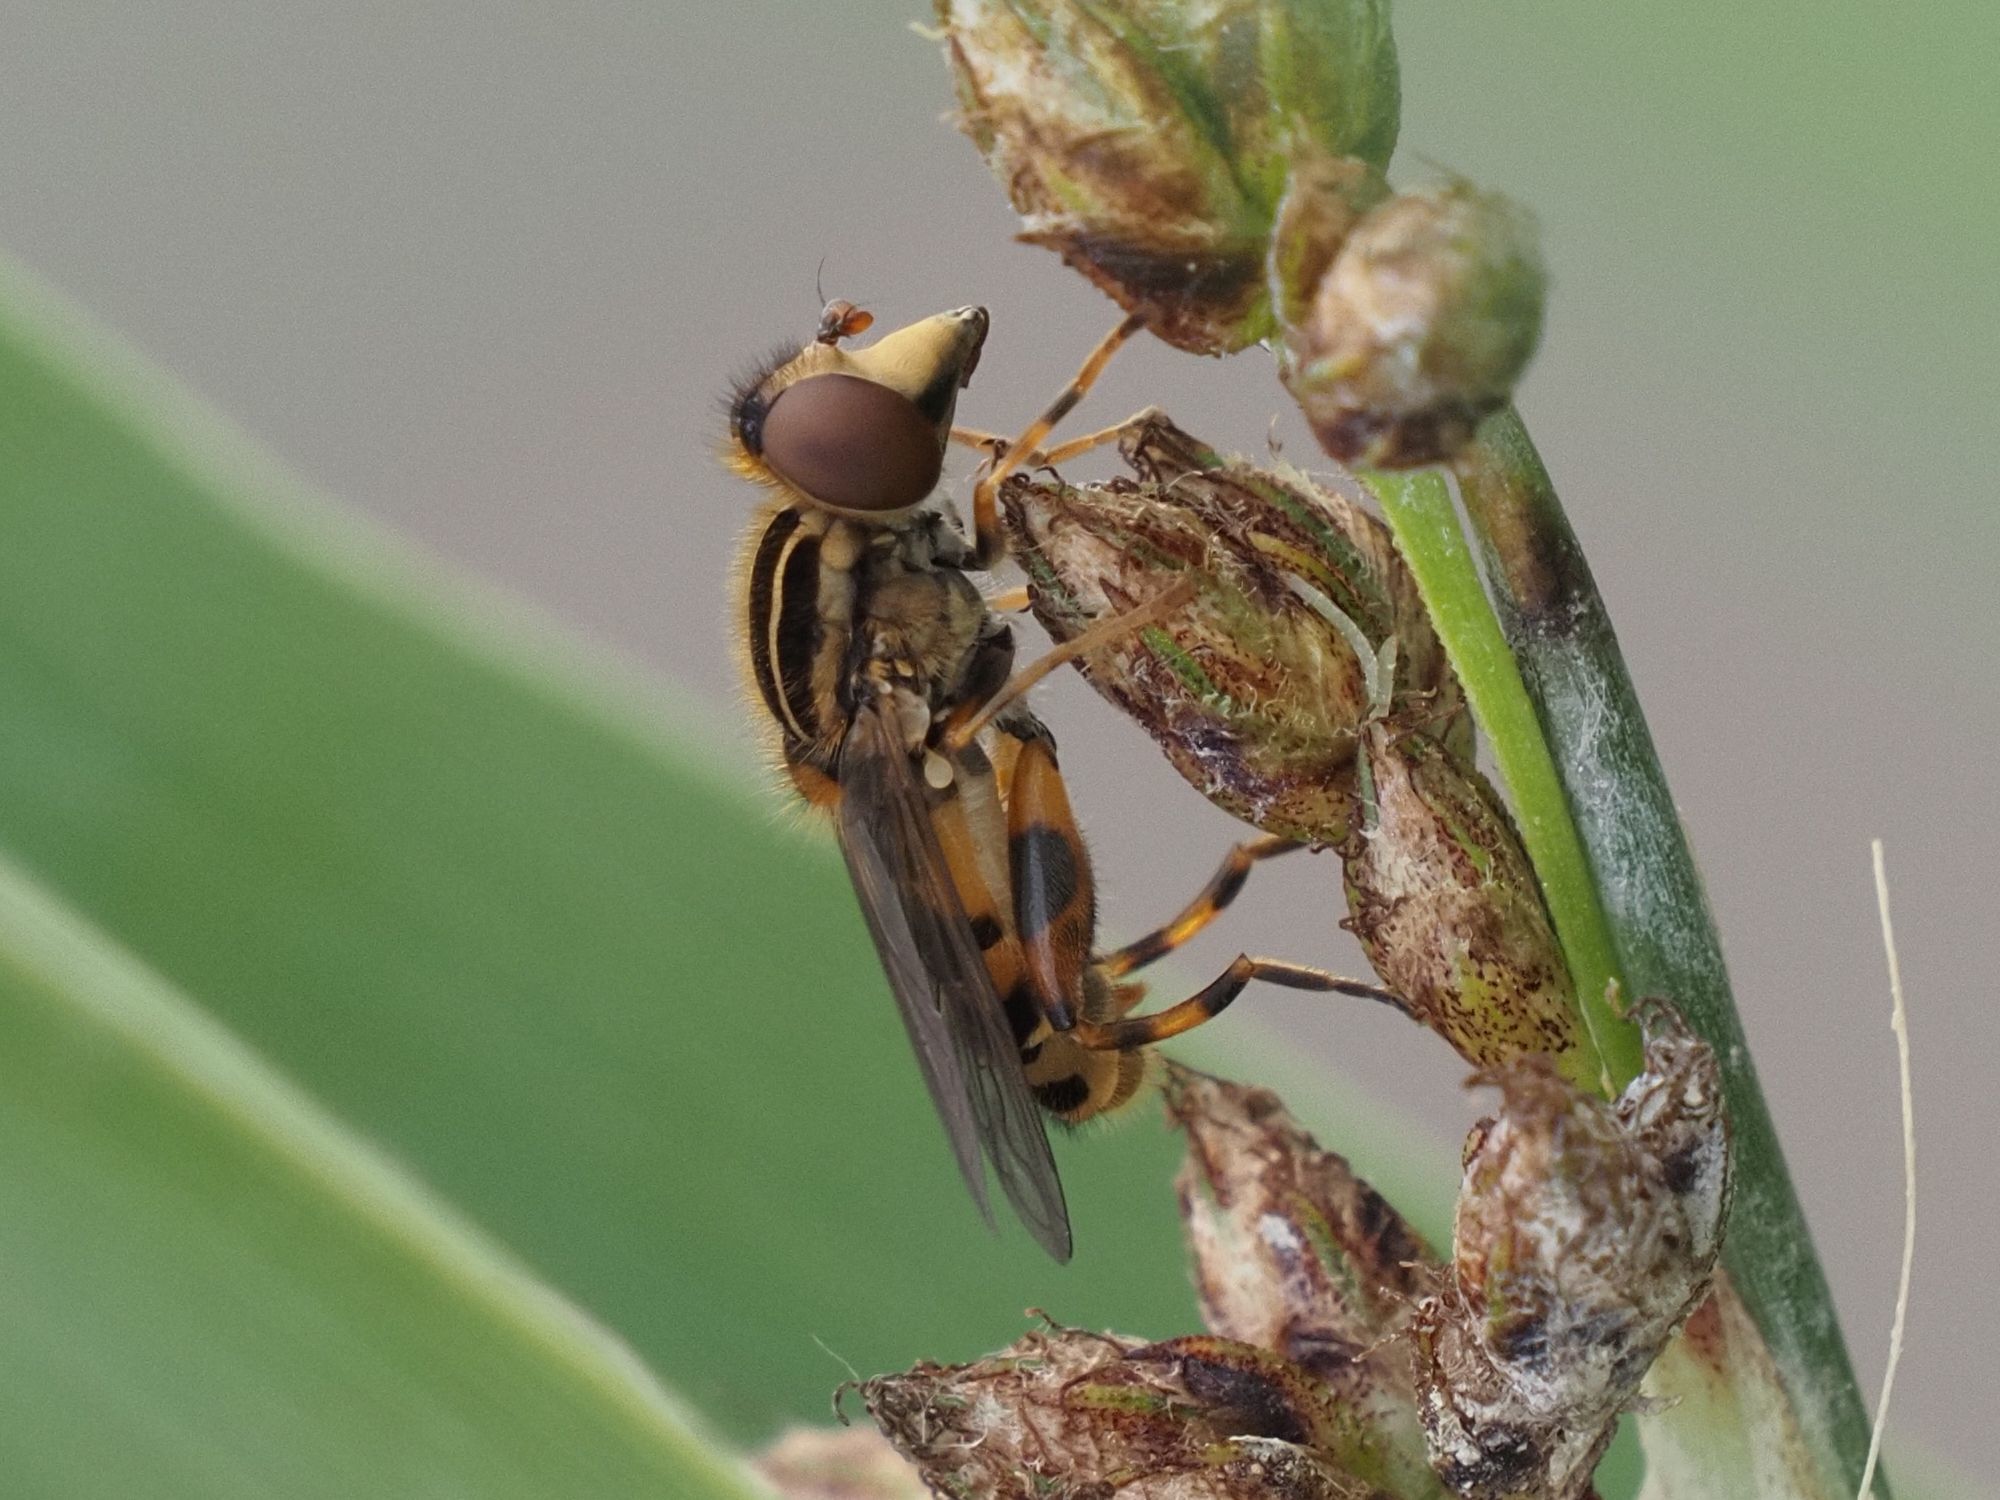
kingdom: Animalia
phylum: Arthropoda
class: Insecta
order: Diptera
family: Syrphidae
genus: Eurimyia
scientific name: Eurimyia lineatus
